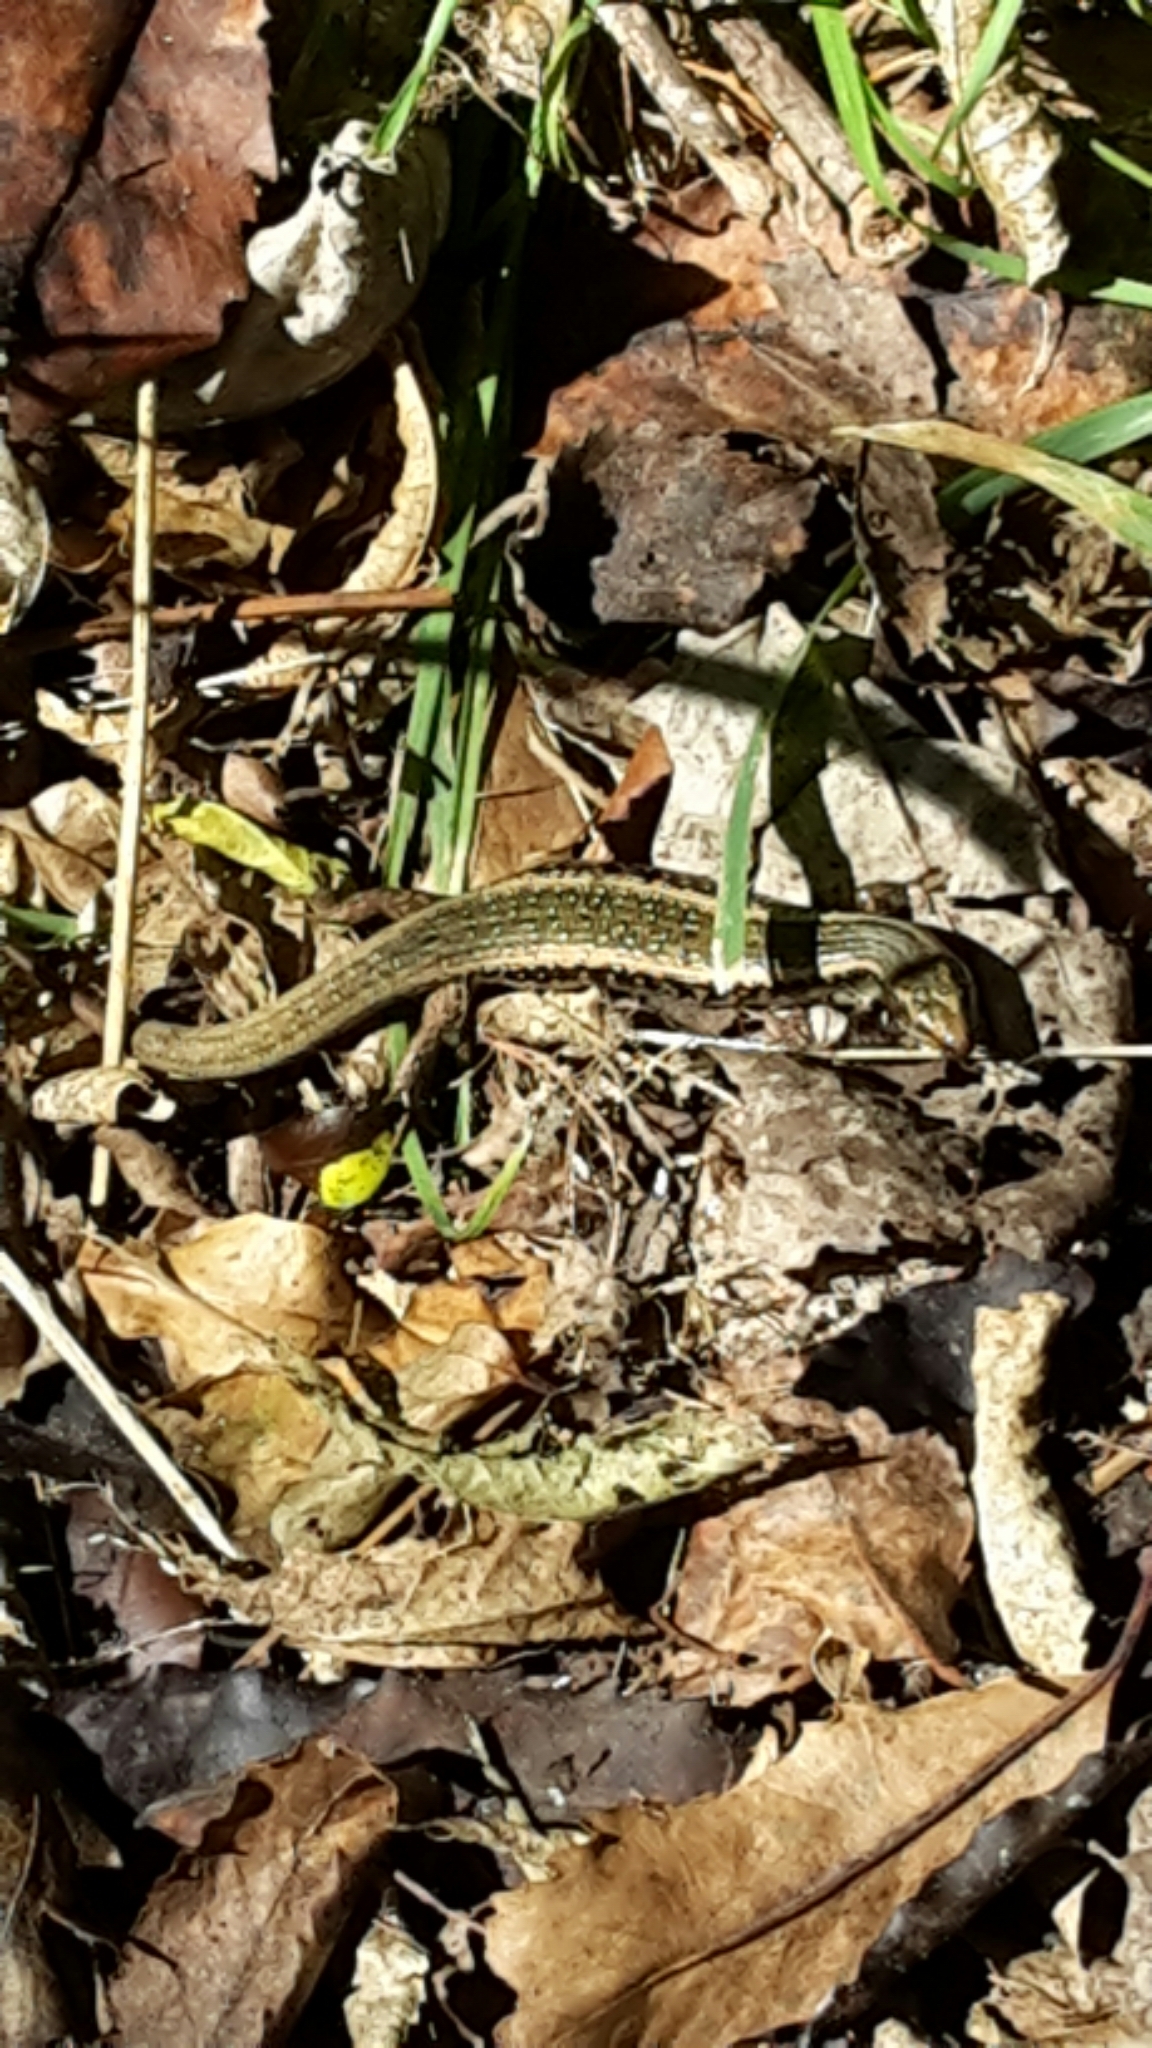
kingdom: Animalia
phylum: Chordata
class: Squamata
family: Scincidae
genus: Oligosoma
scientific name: Oligosoma kokowai
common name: Northern spotted skink
